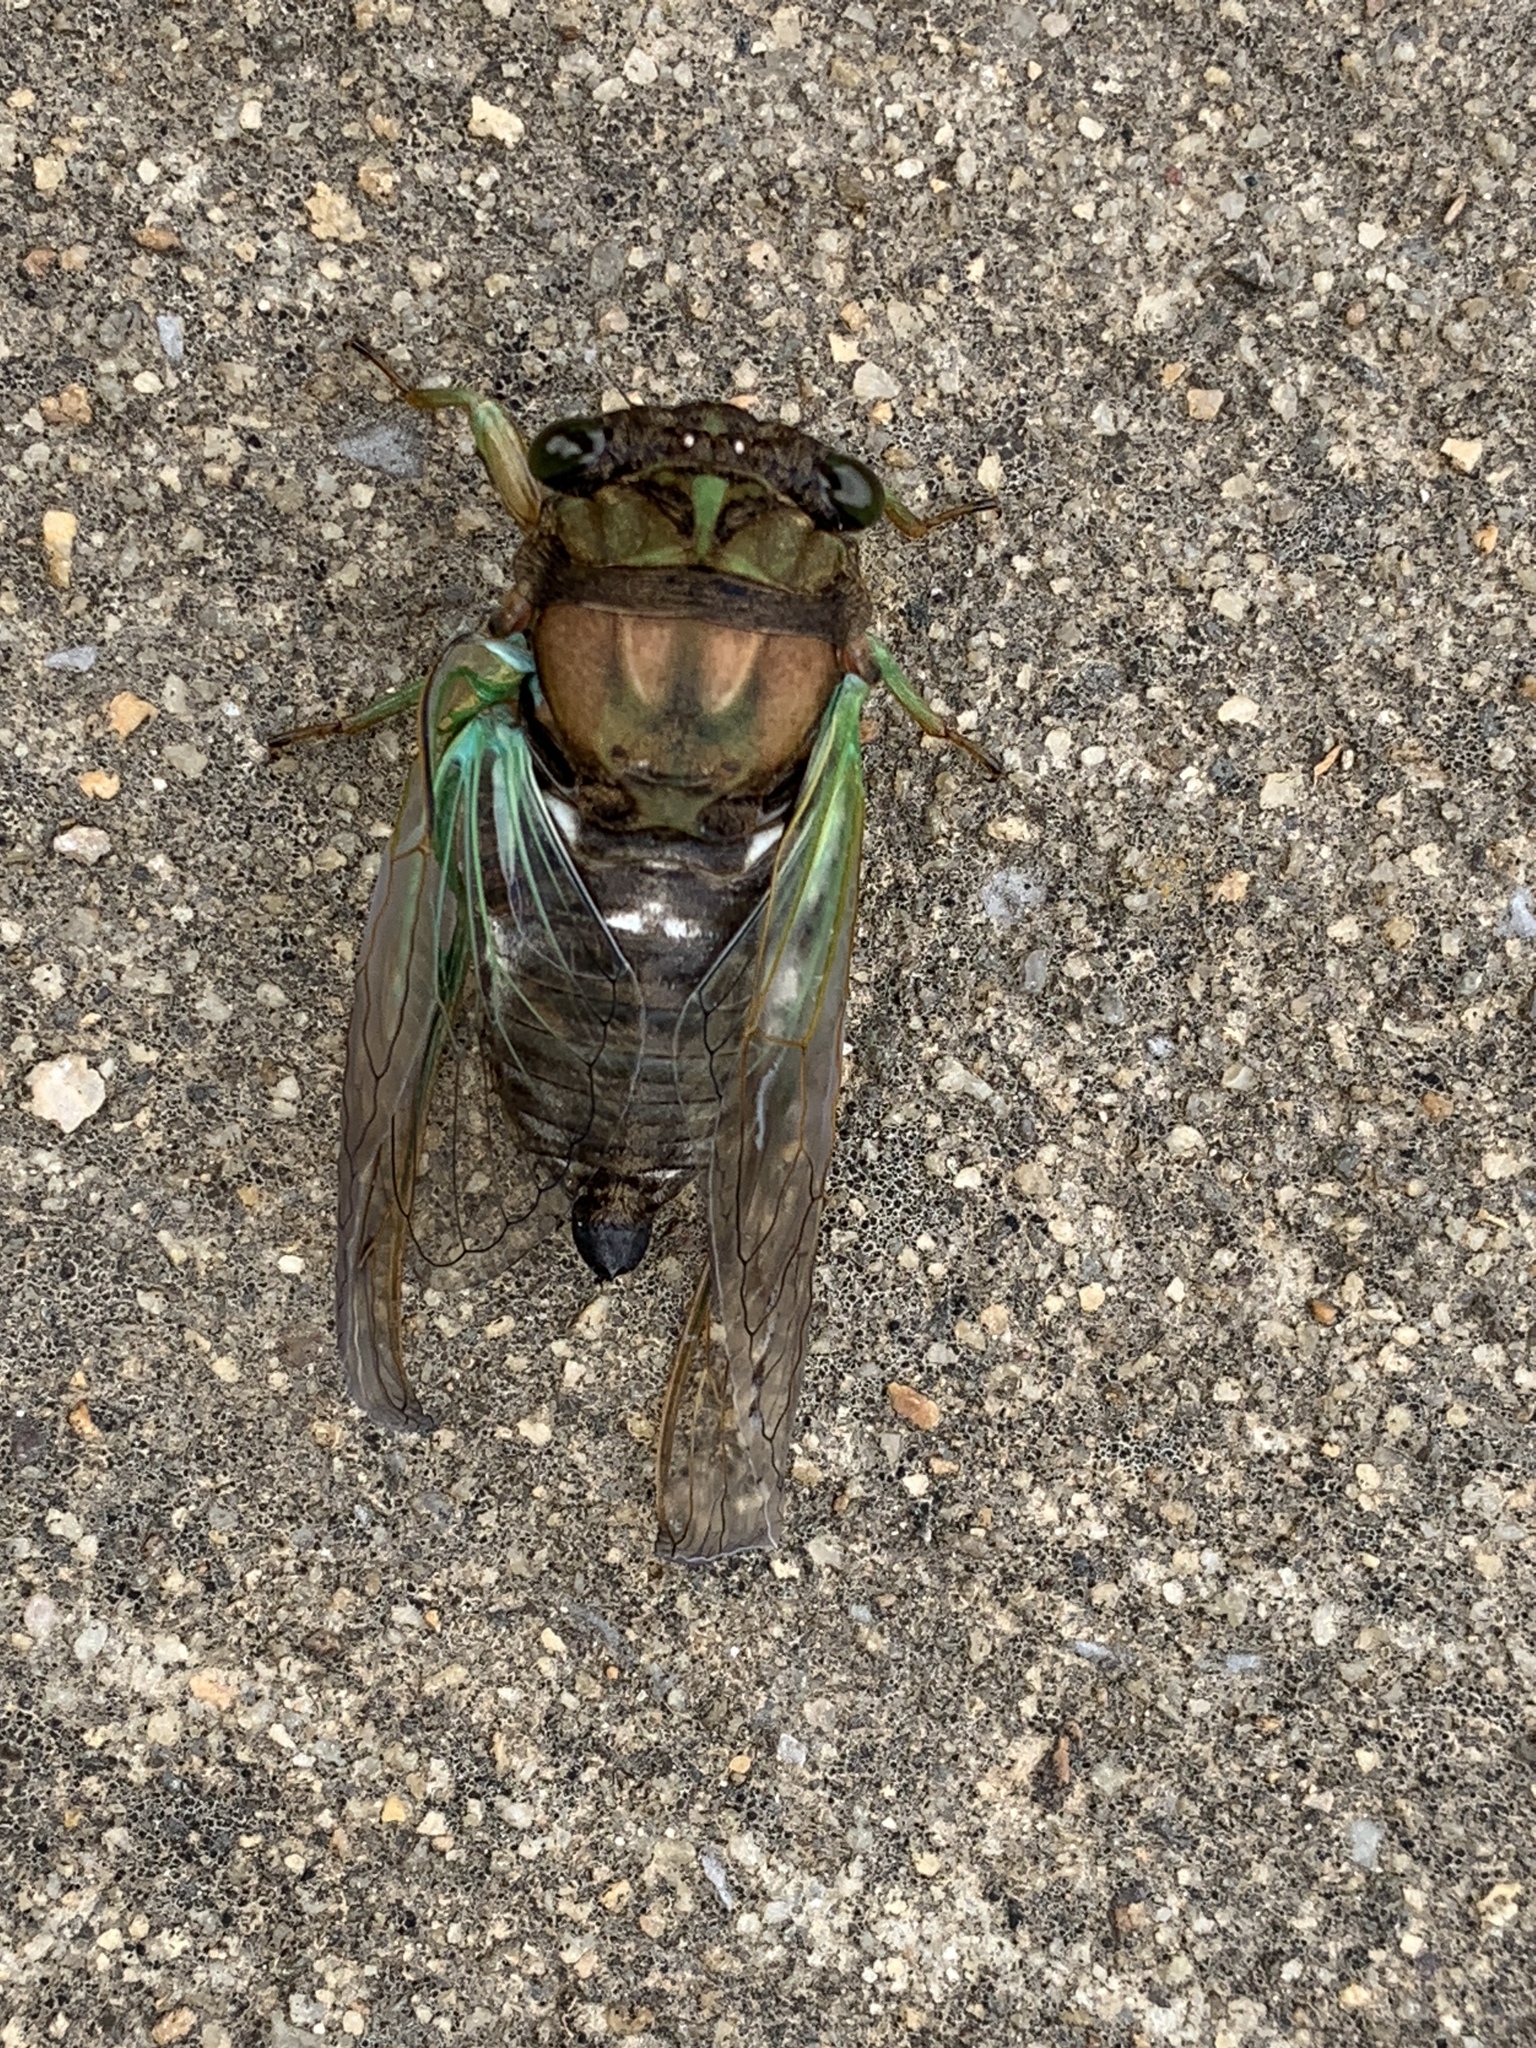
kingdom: Animalia
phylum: Arthropoda
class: Insecta
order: Hemiptera
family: Cicadidae
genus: Neotibicen
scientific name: Neotibicen tibicen
